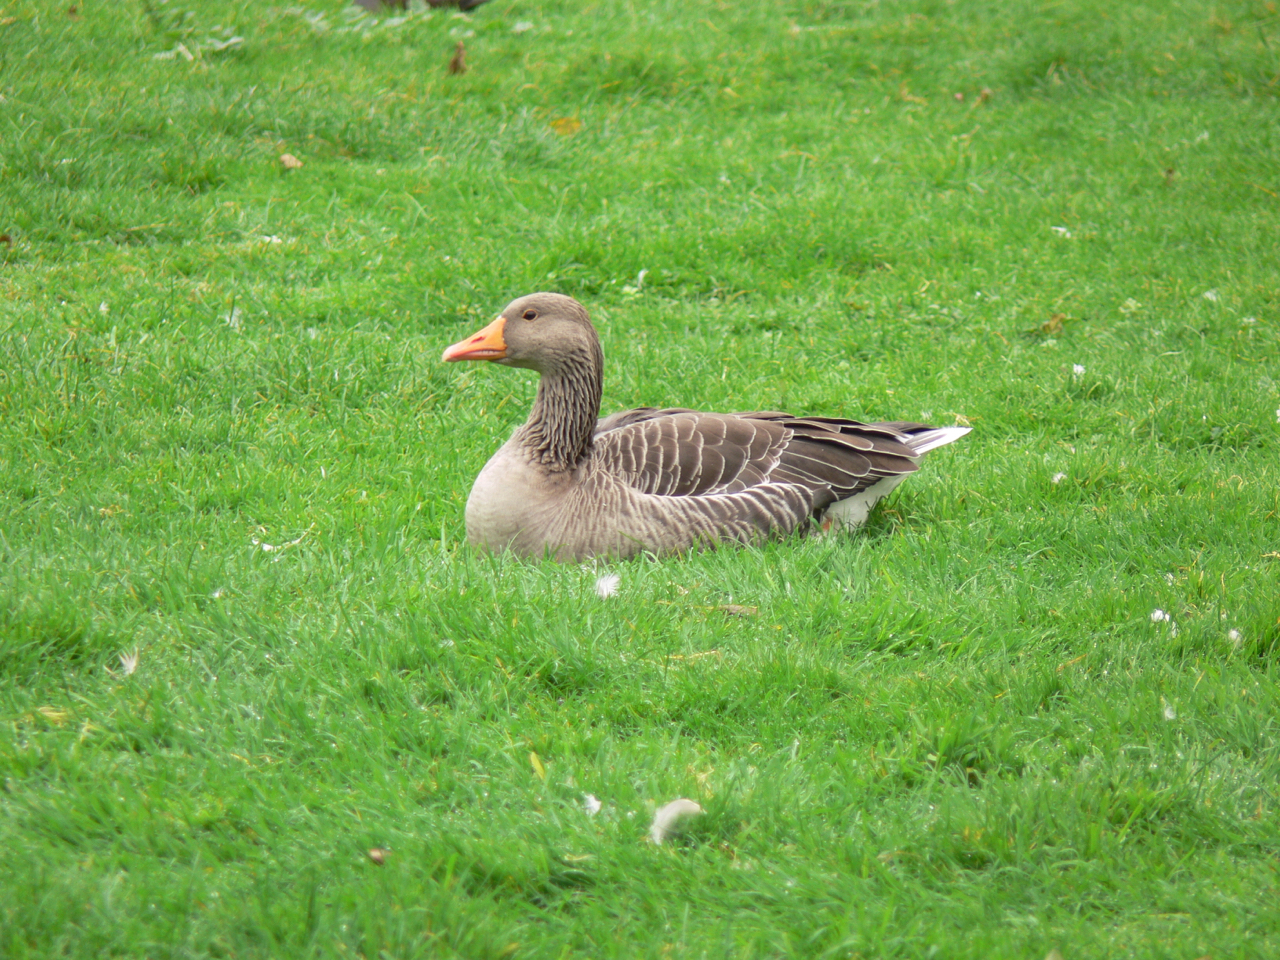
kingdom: Animalia
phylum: Chordata
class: Aves
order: Anseriformes
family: Anatidae
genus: Anser
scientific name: Anser anser
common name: Greylag goose
